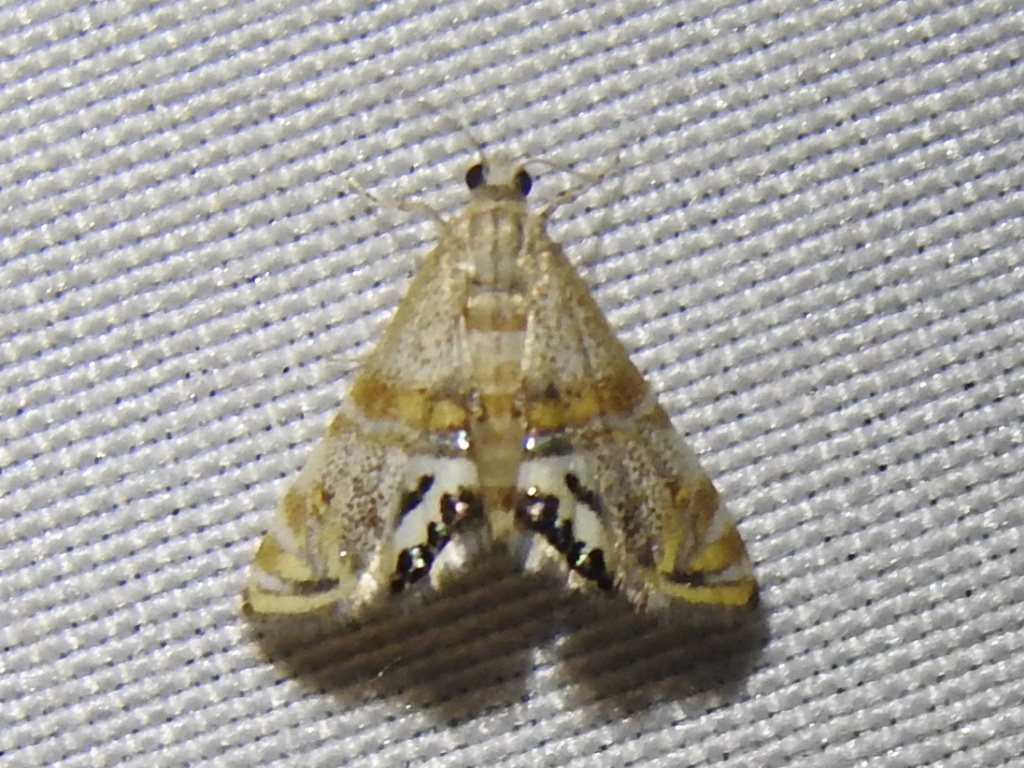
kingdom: Animalia
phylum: Arthropoda
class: Insecta
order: Lepidoptera
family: Crambidae
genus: Petrophila
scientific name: Petrophila bifascialis
